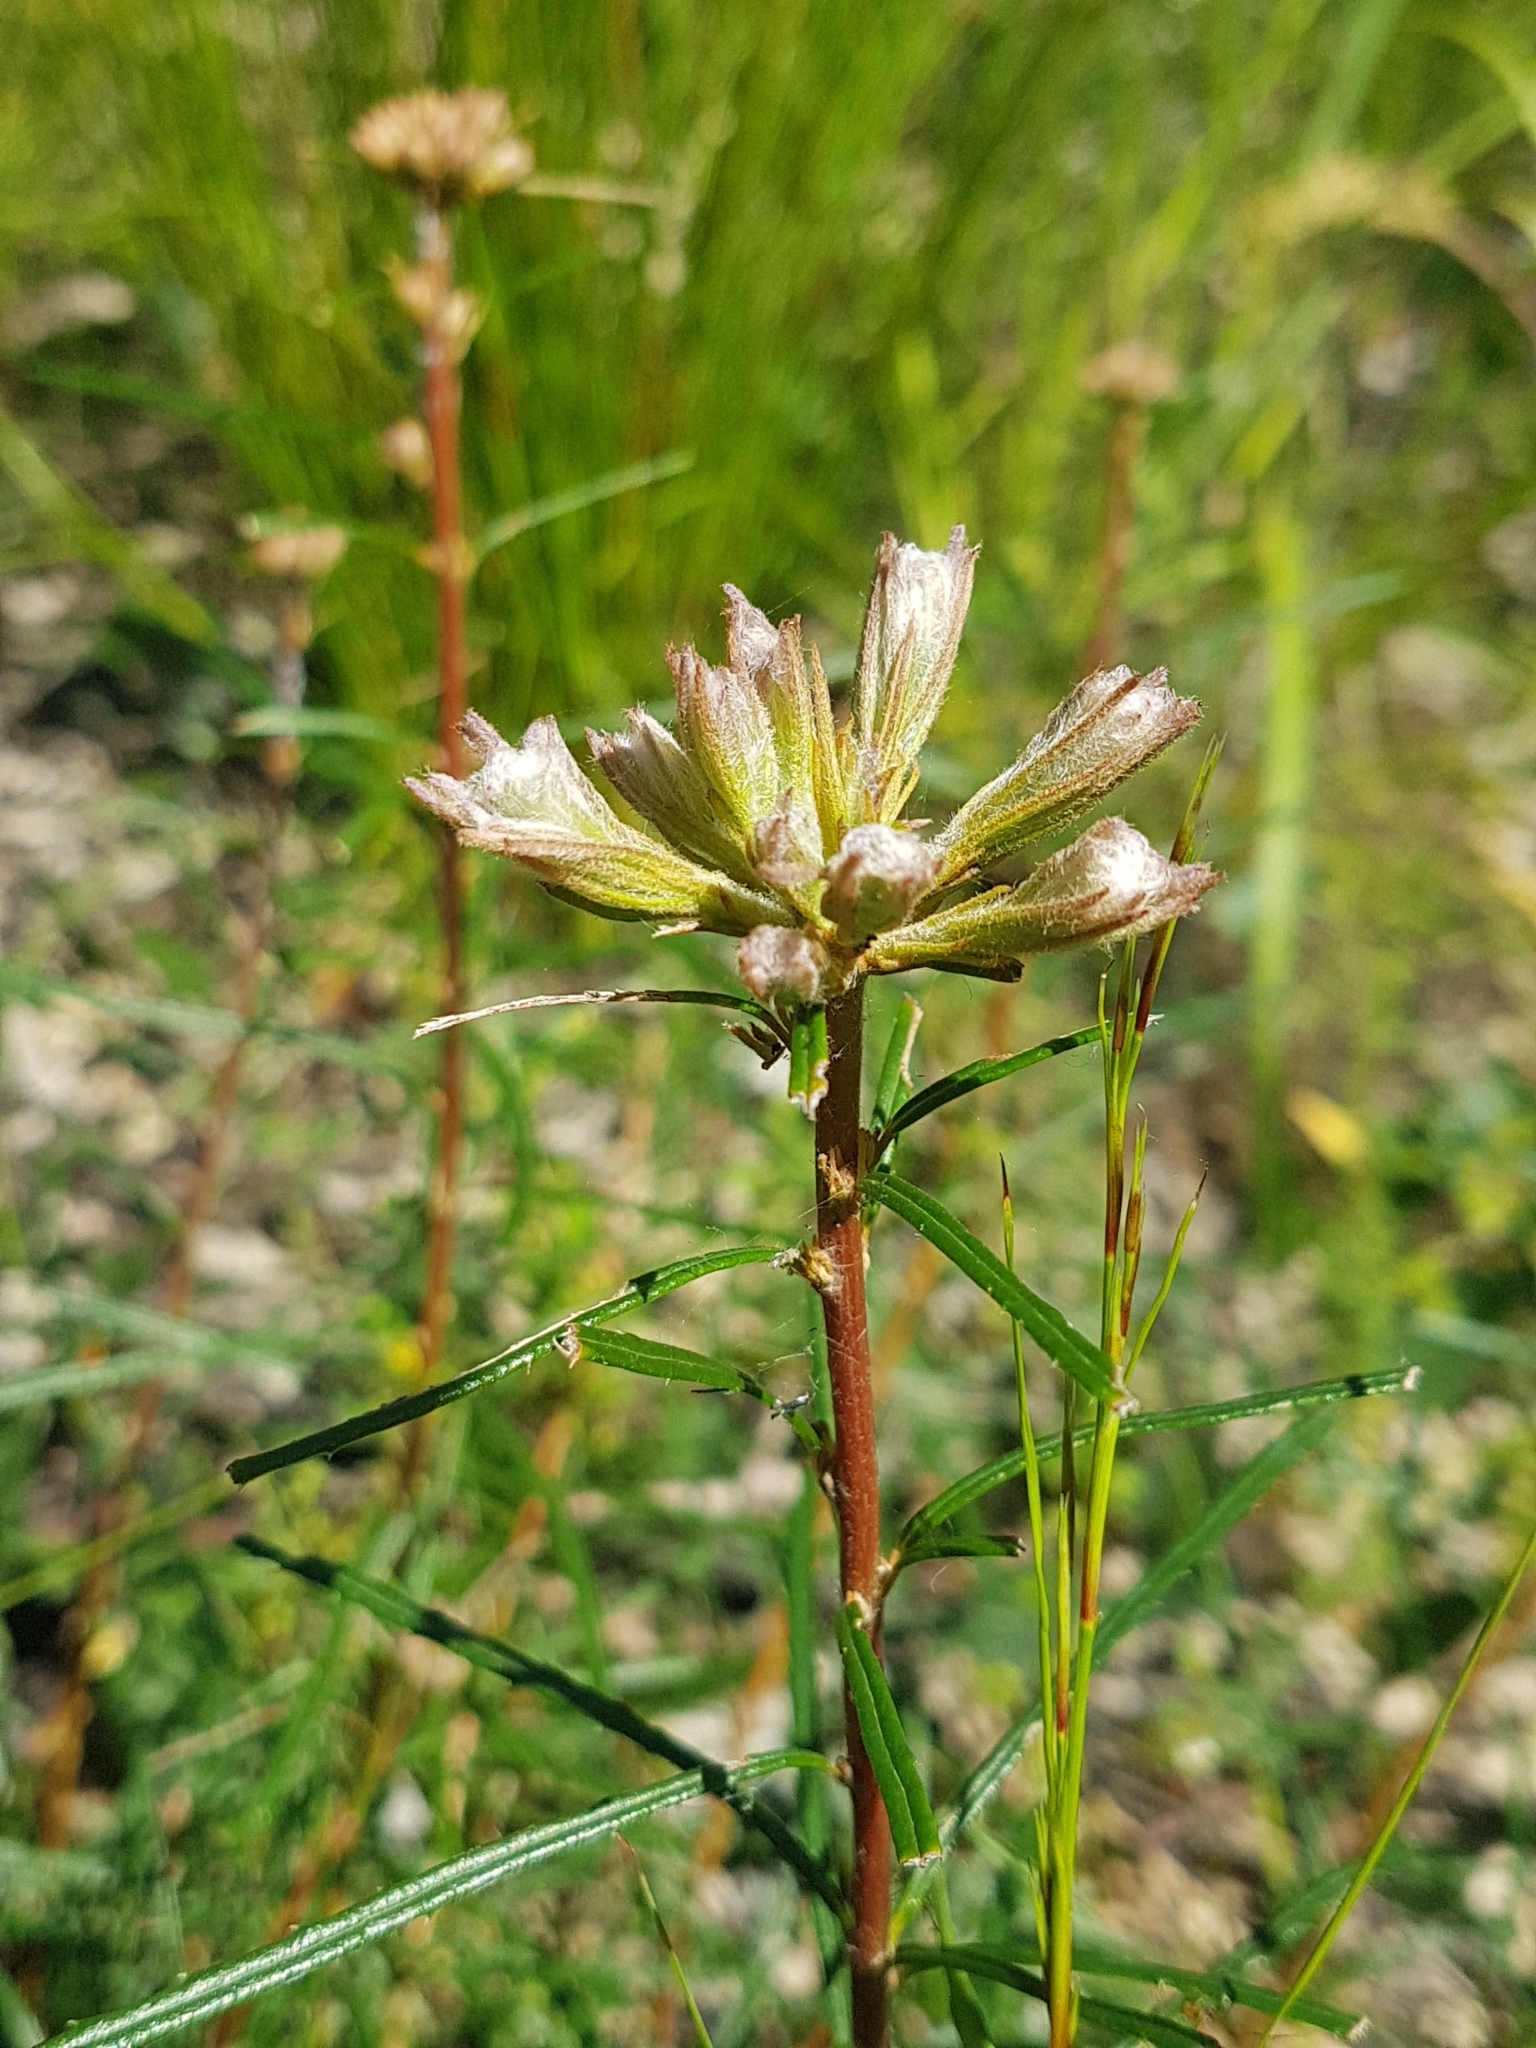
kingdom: Plantae
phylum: Tracheophyta
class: Magnoliopsida
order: Proteales
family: Proteaceae
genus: Banksia
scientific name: Banksia spinulosa
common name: Hairpin banksia
